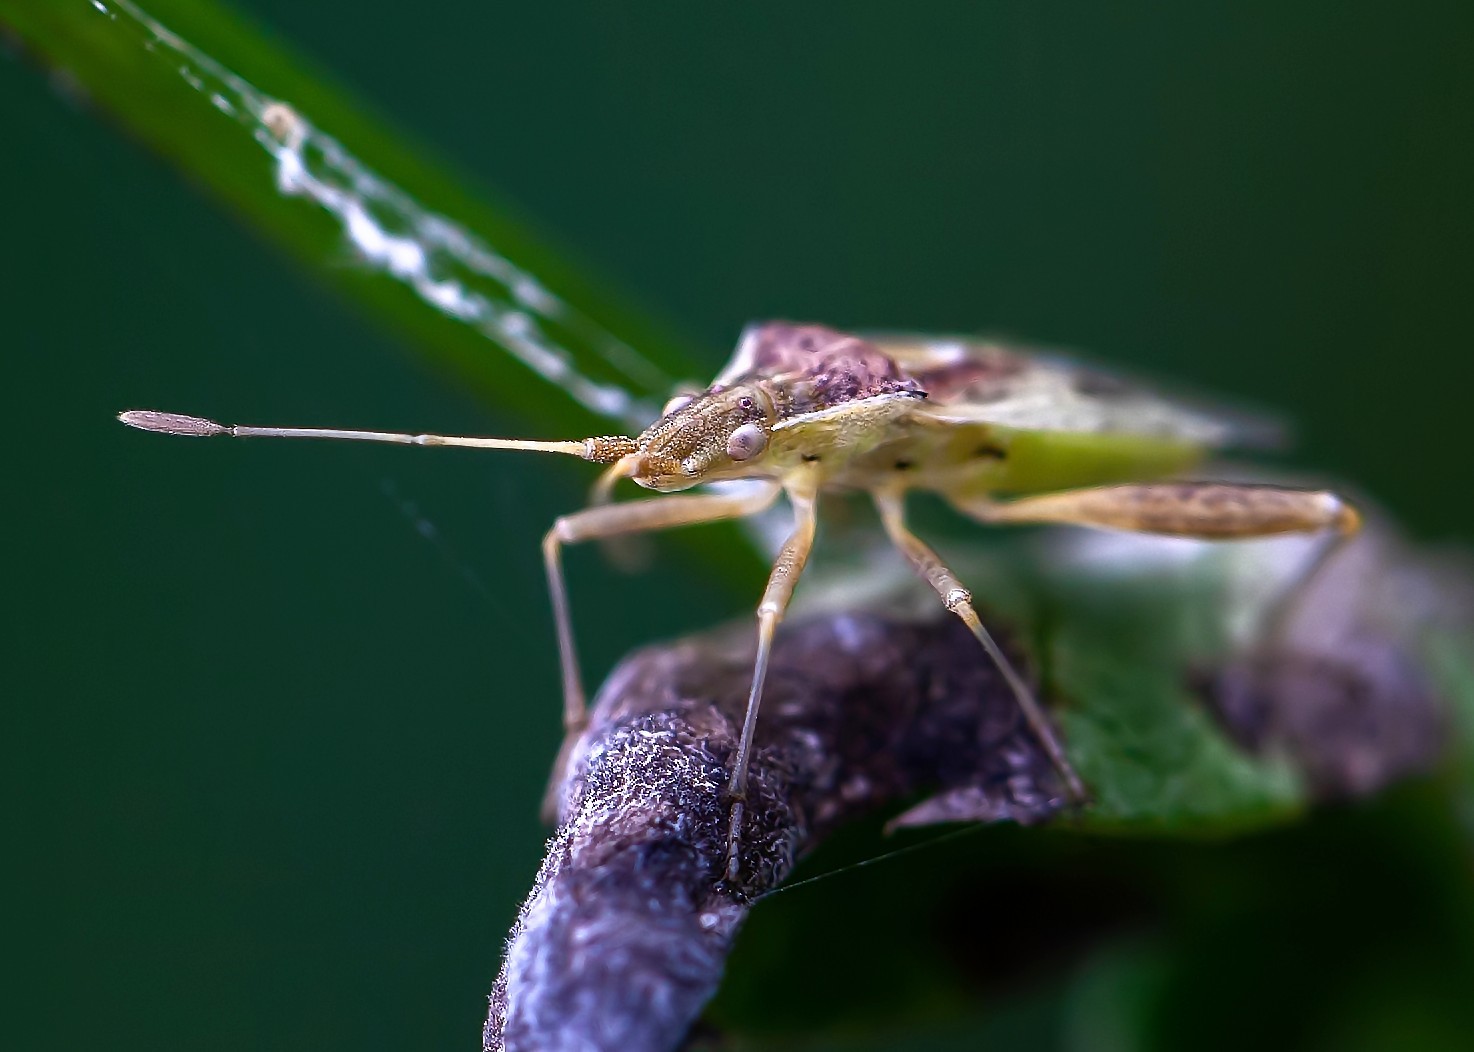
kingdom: Animalia
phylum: Arthropoda
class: Insecta
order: Hemiptera
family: Rhopalidae
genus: Harmostes
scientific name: Harmostes reflexulus
